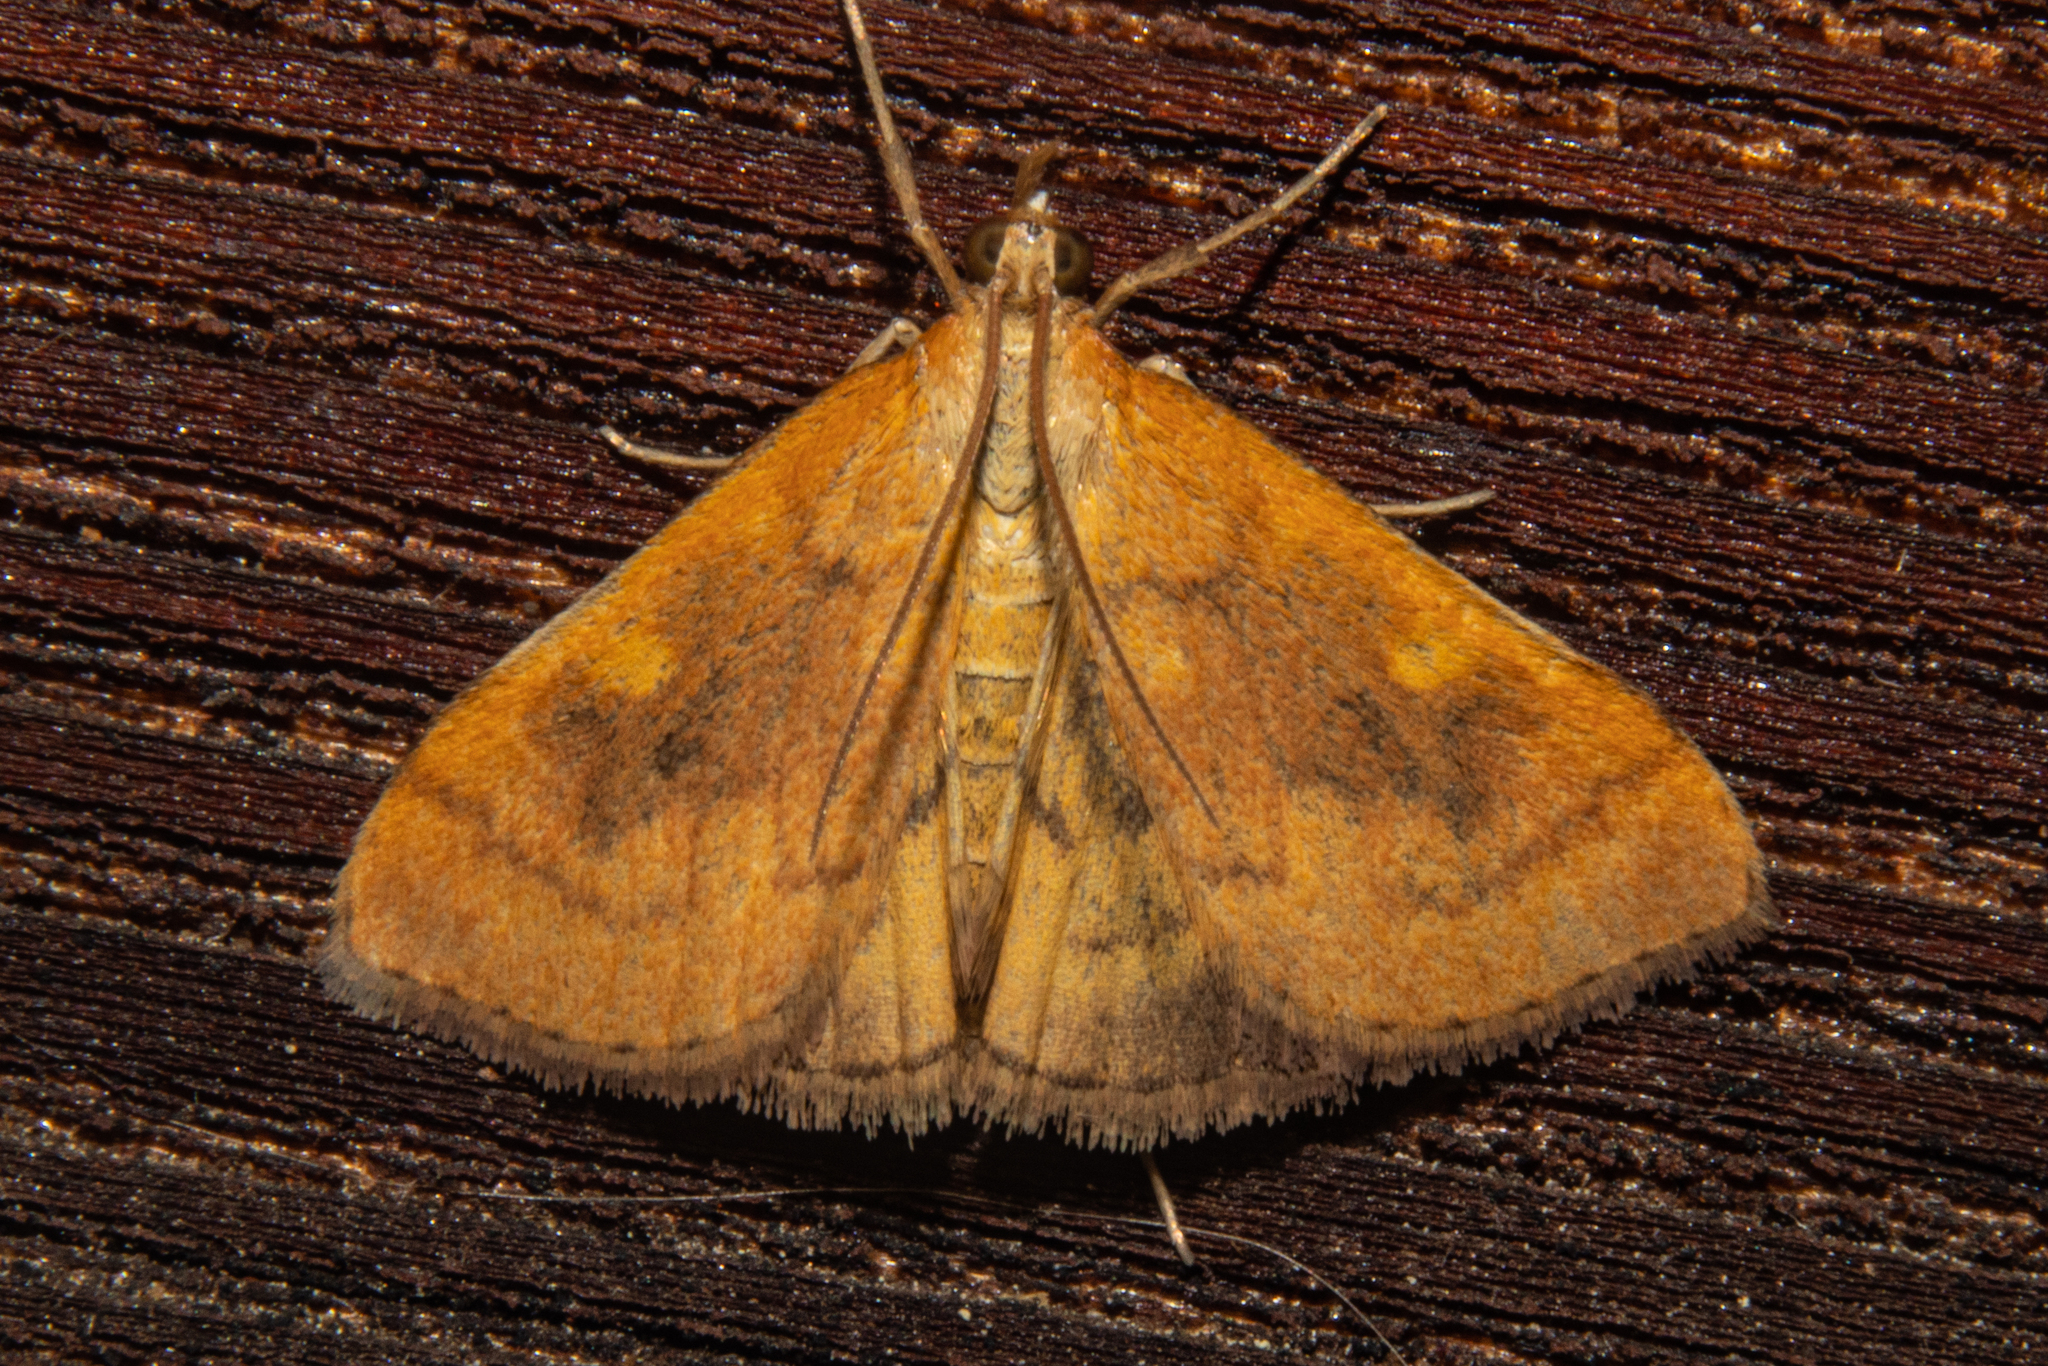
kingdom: Animalia
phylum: Arthropoda
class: Insecta
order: Lepidoptera
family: Crambidae
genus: Udea
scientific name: Udea Mnesictena flavidalis
